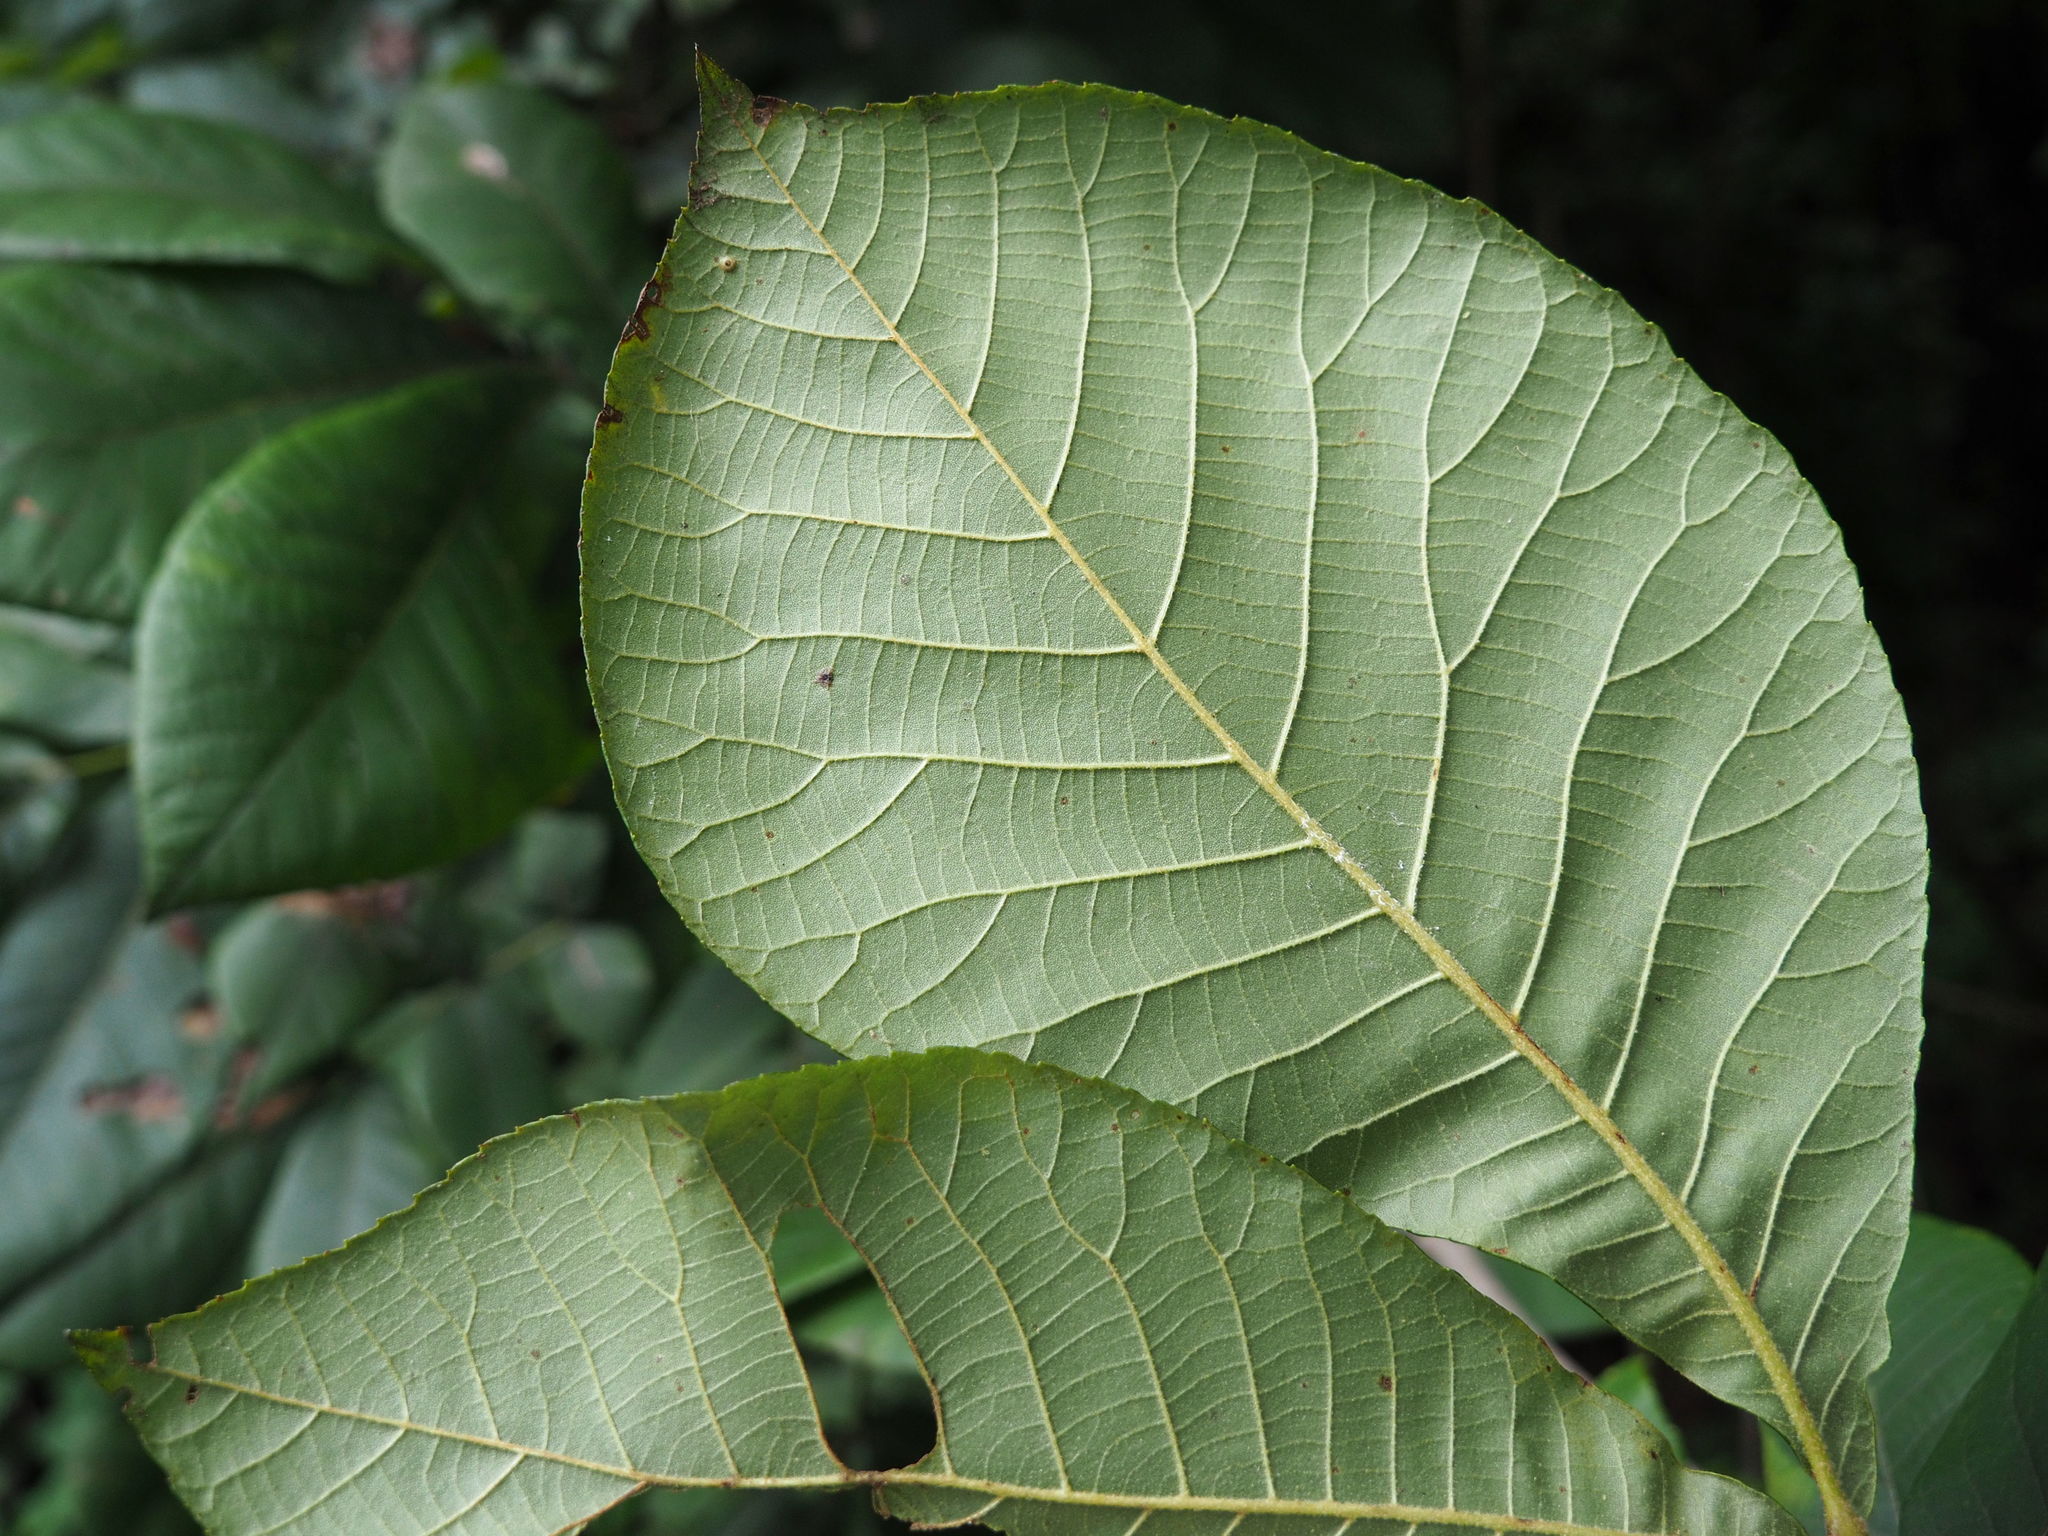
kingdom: Plantae
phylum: Tracheophyta
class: Magnoliopsida
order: Fagales
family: Juglandaceae
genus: Carya
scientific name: Carya alba
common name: Mockernut hickory
